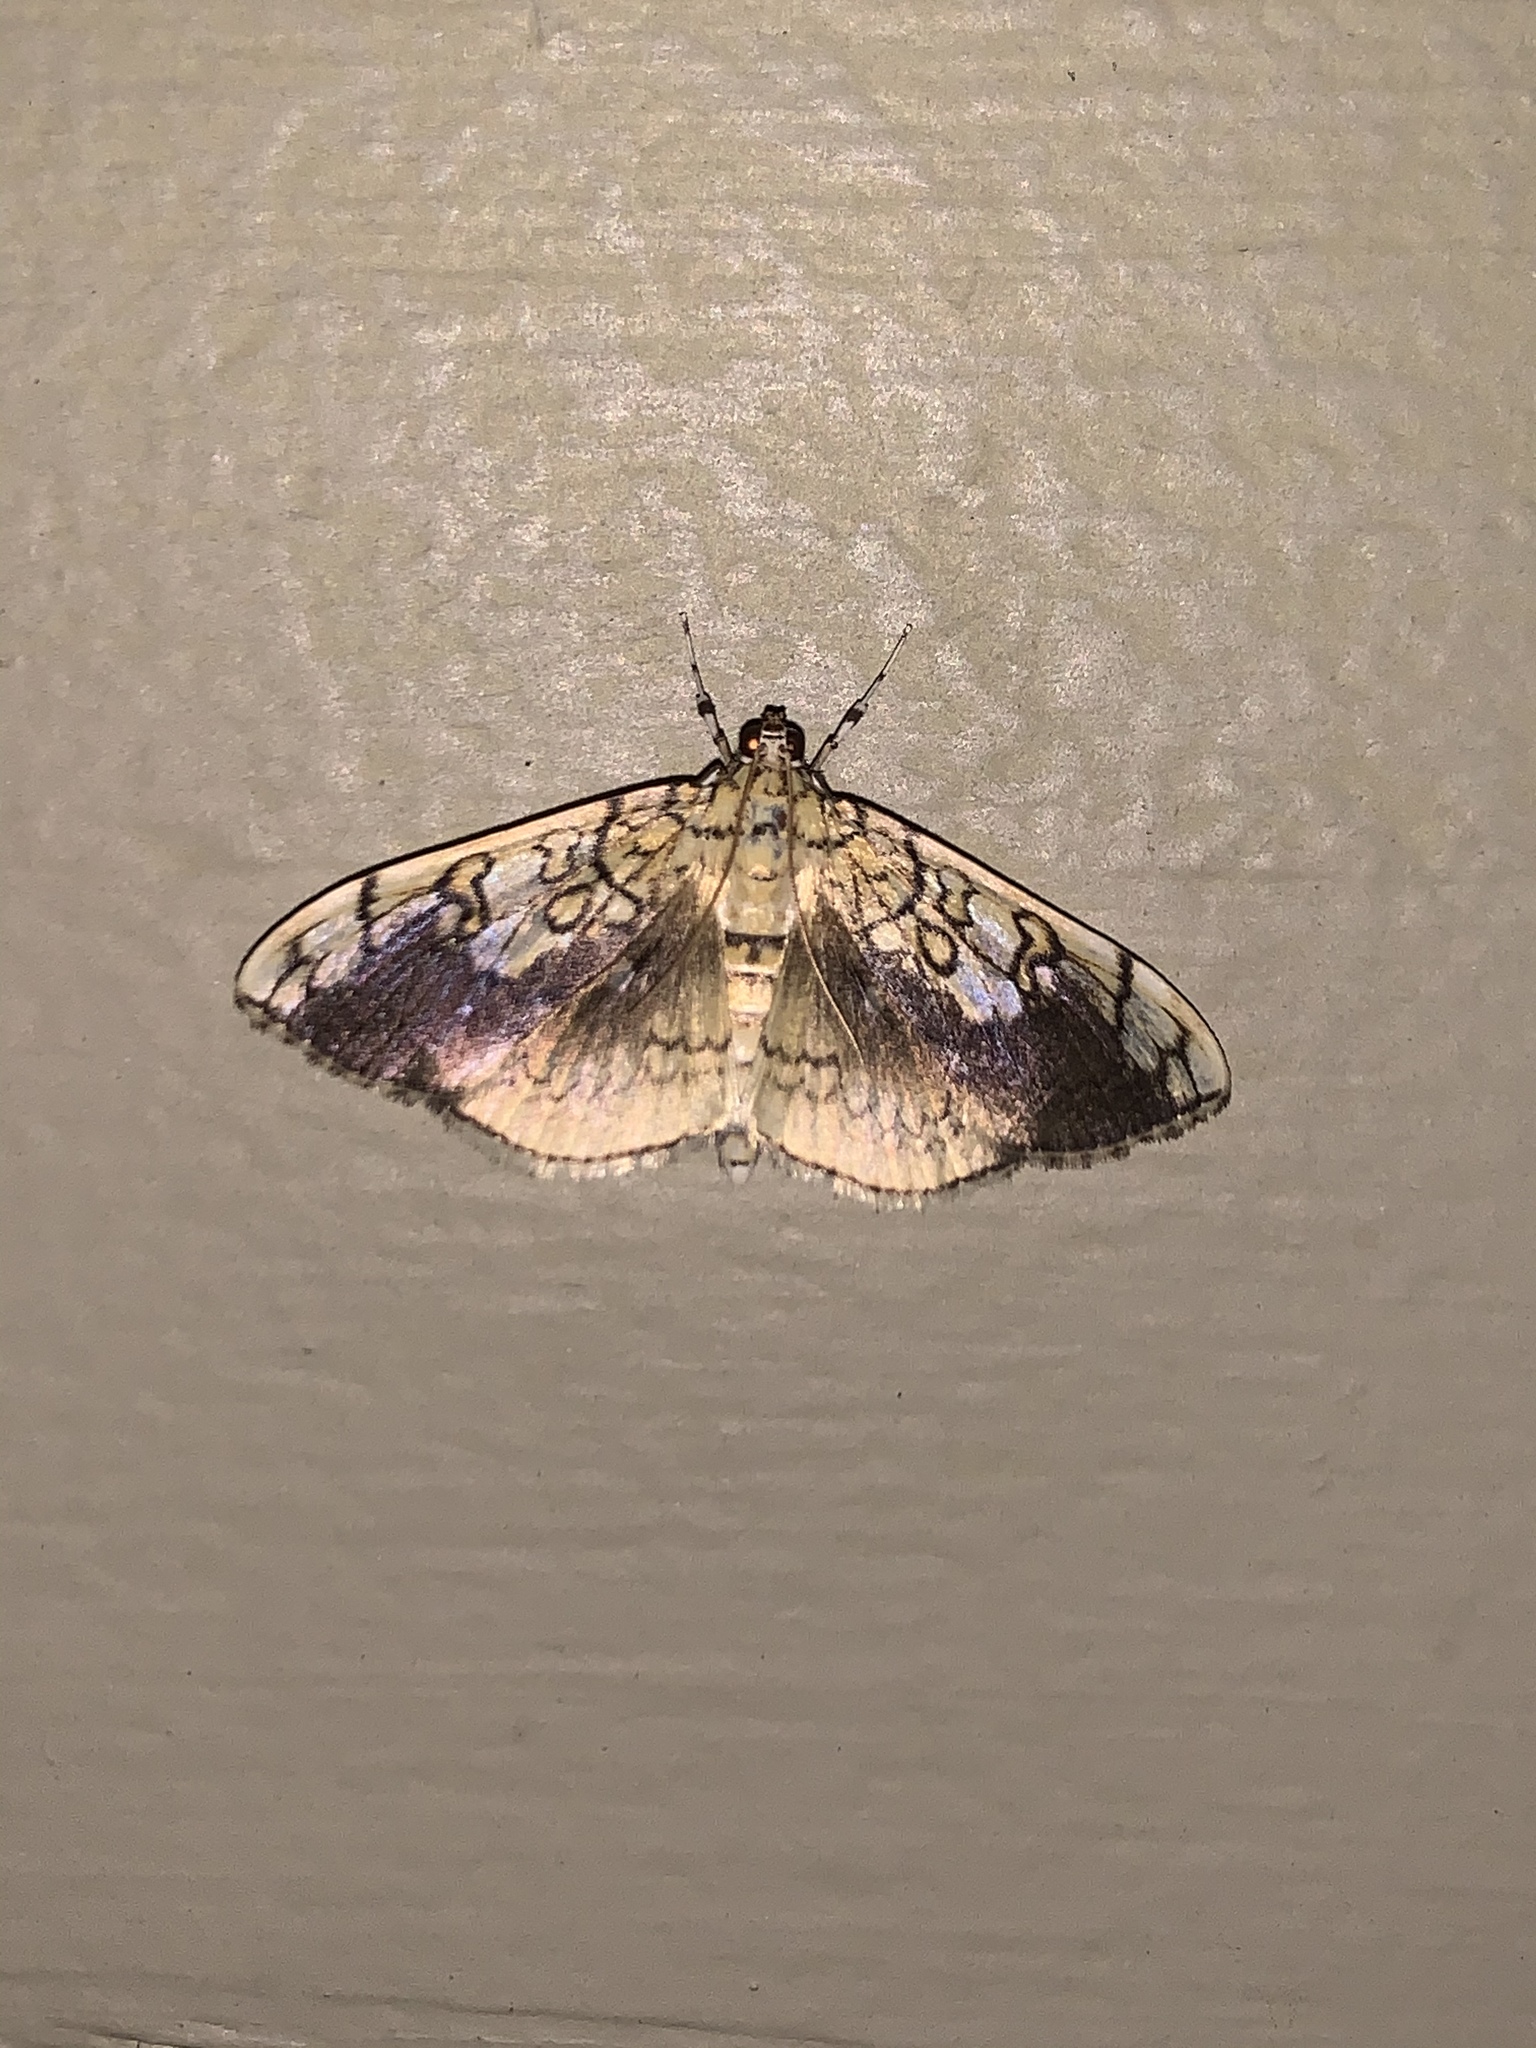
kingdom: Animalia
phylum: Arthropoda
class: Insecta
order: Lepidoptera
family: Crambidae
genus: Pantographa
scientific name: Pantographa limata
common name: Basswood leafroller moth
